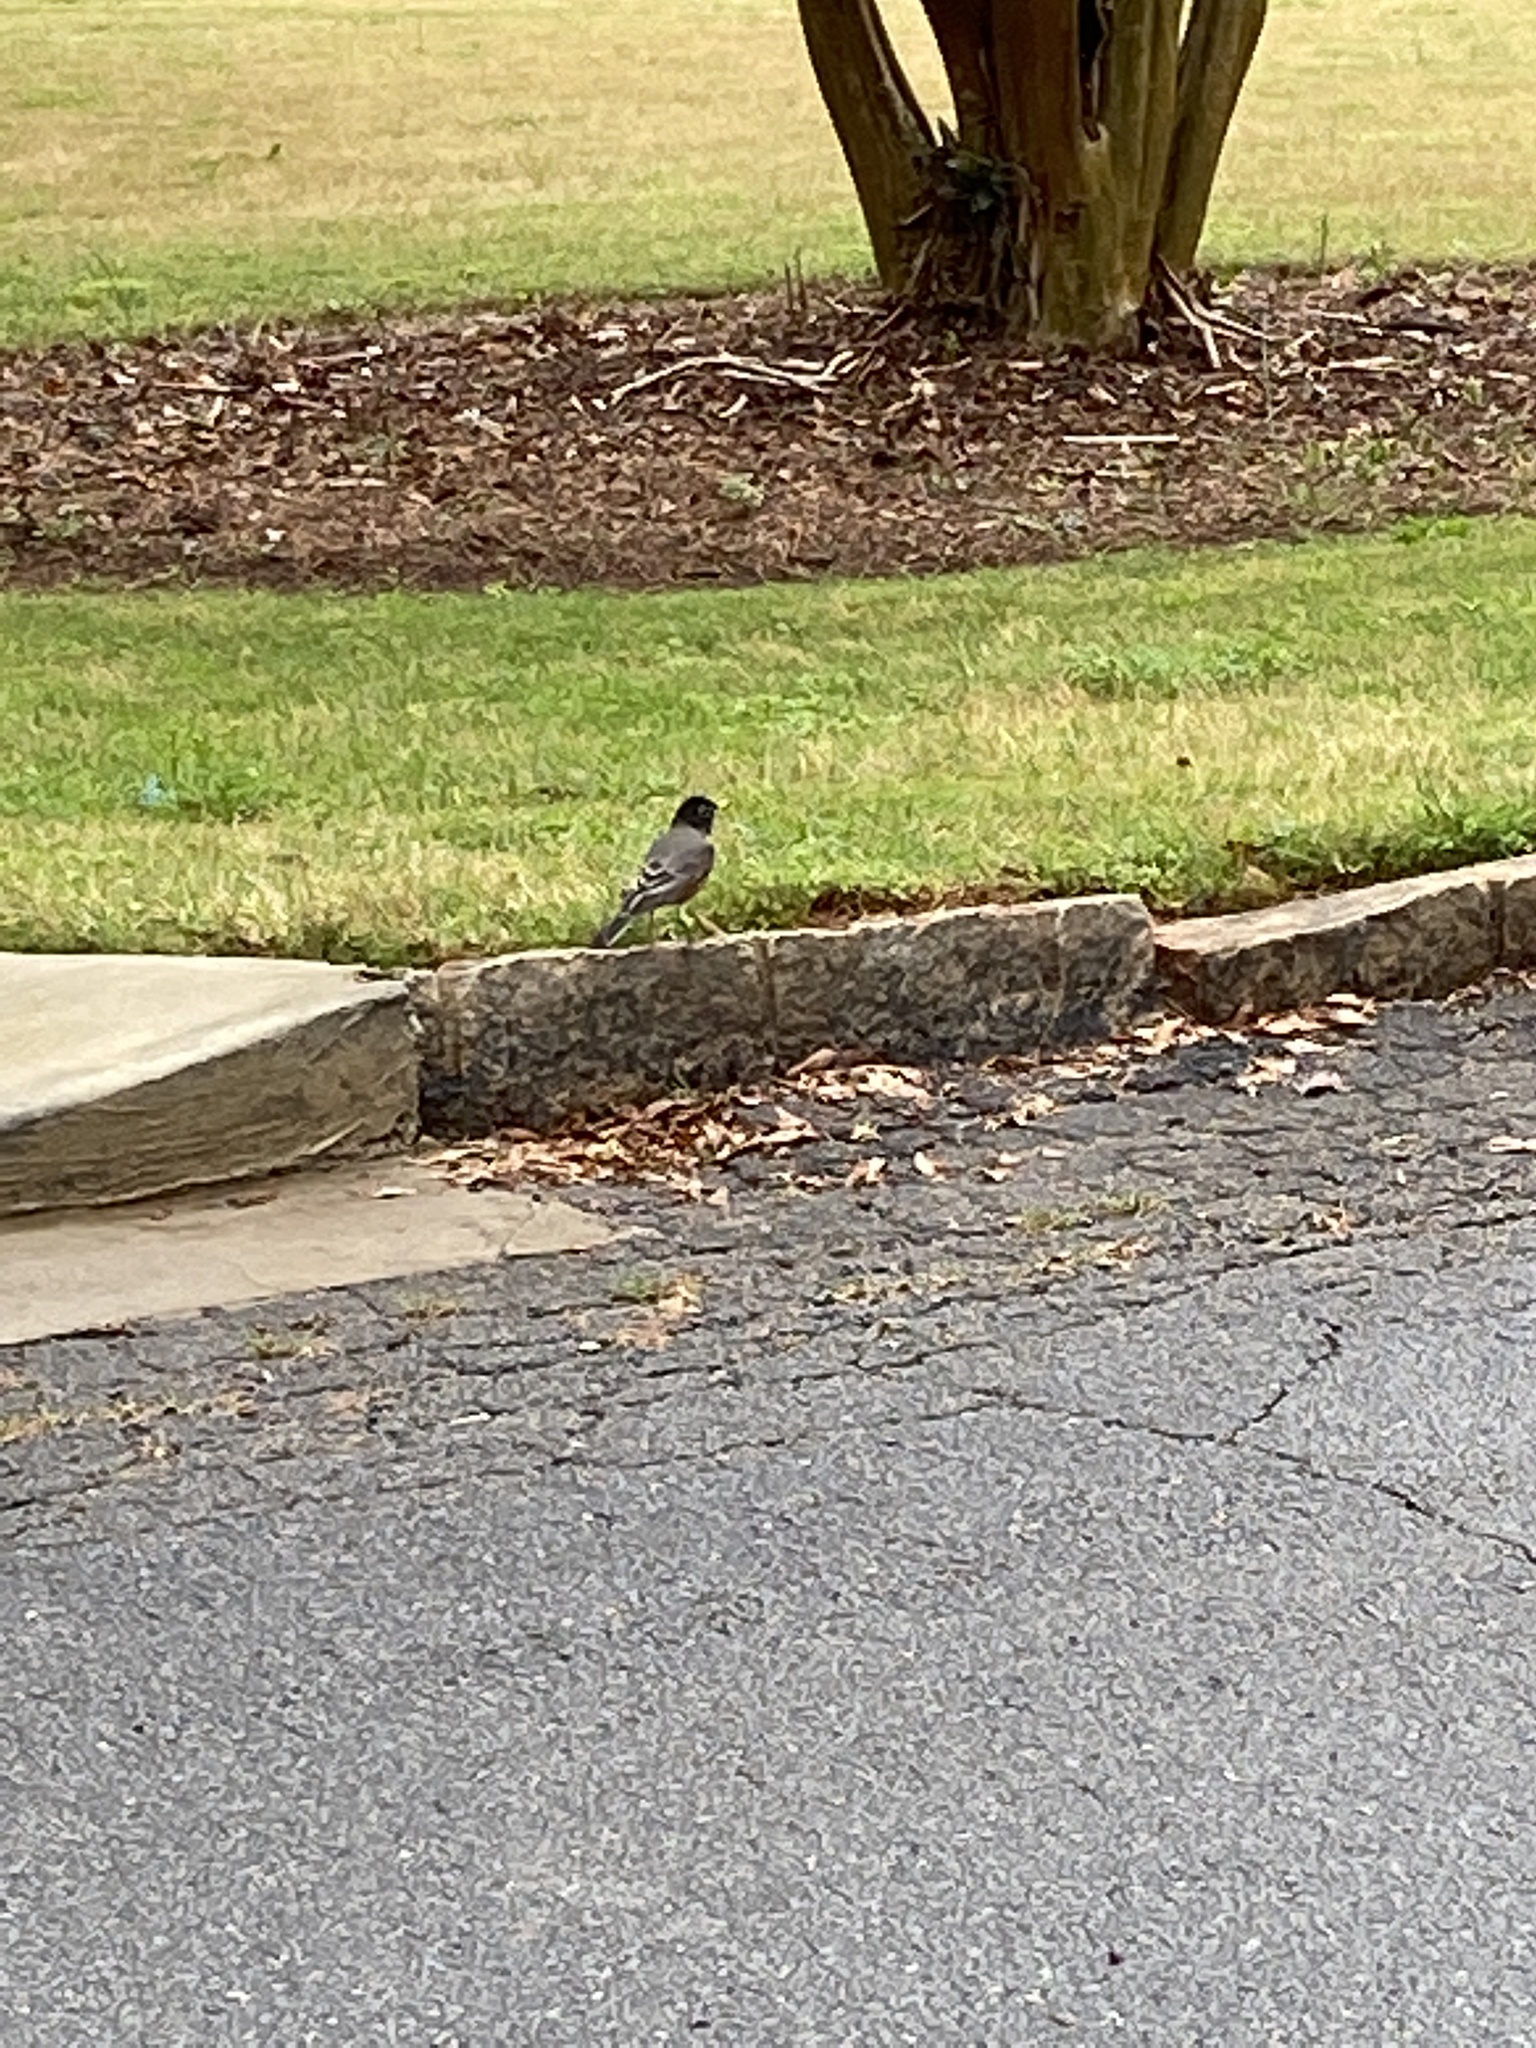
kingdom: Animalia
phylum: Chordata
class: Aves
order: Passeriformes
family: Turdidae
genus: Turdus
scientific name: Turdus migratorius
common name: American robin
